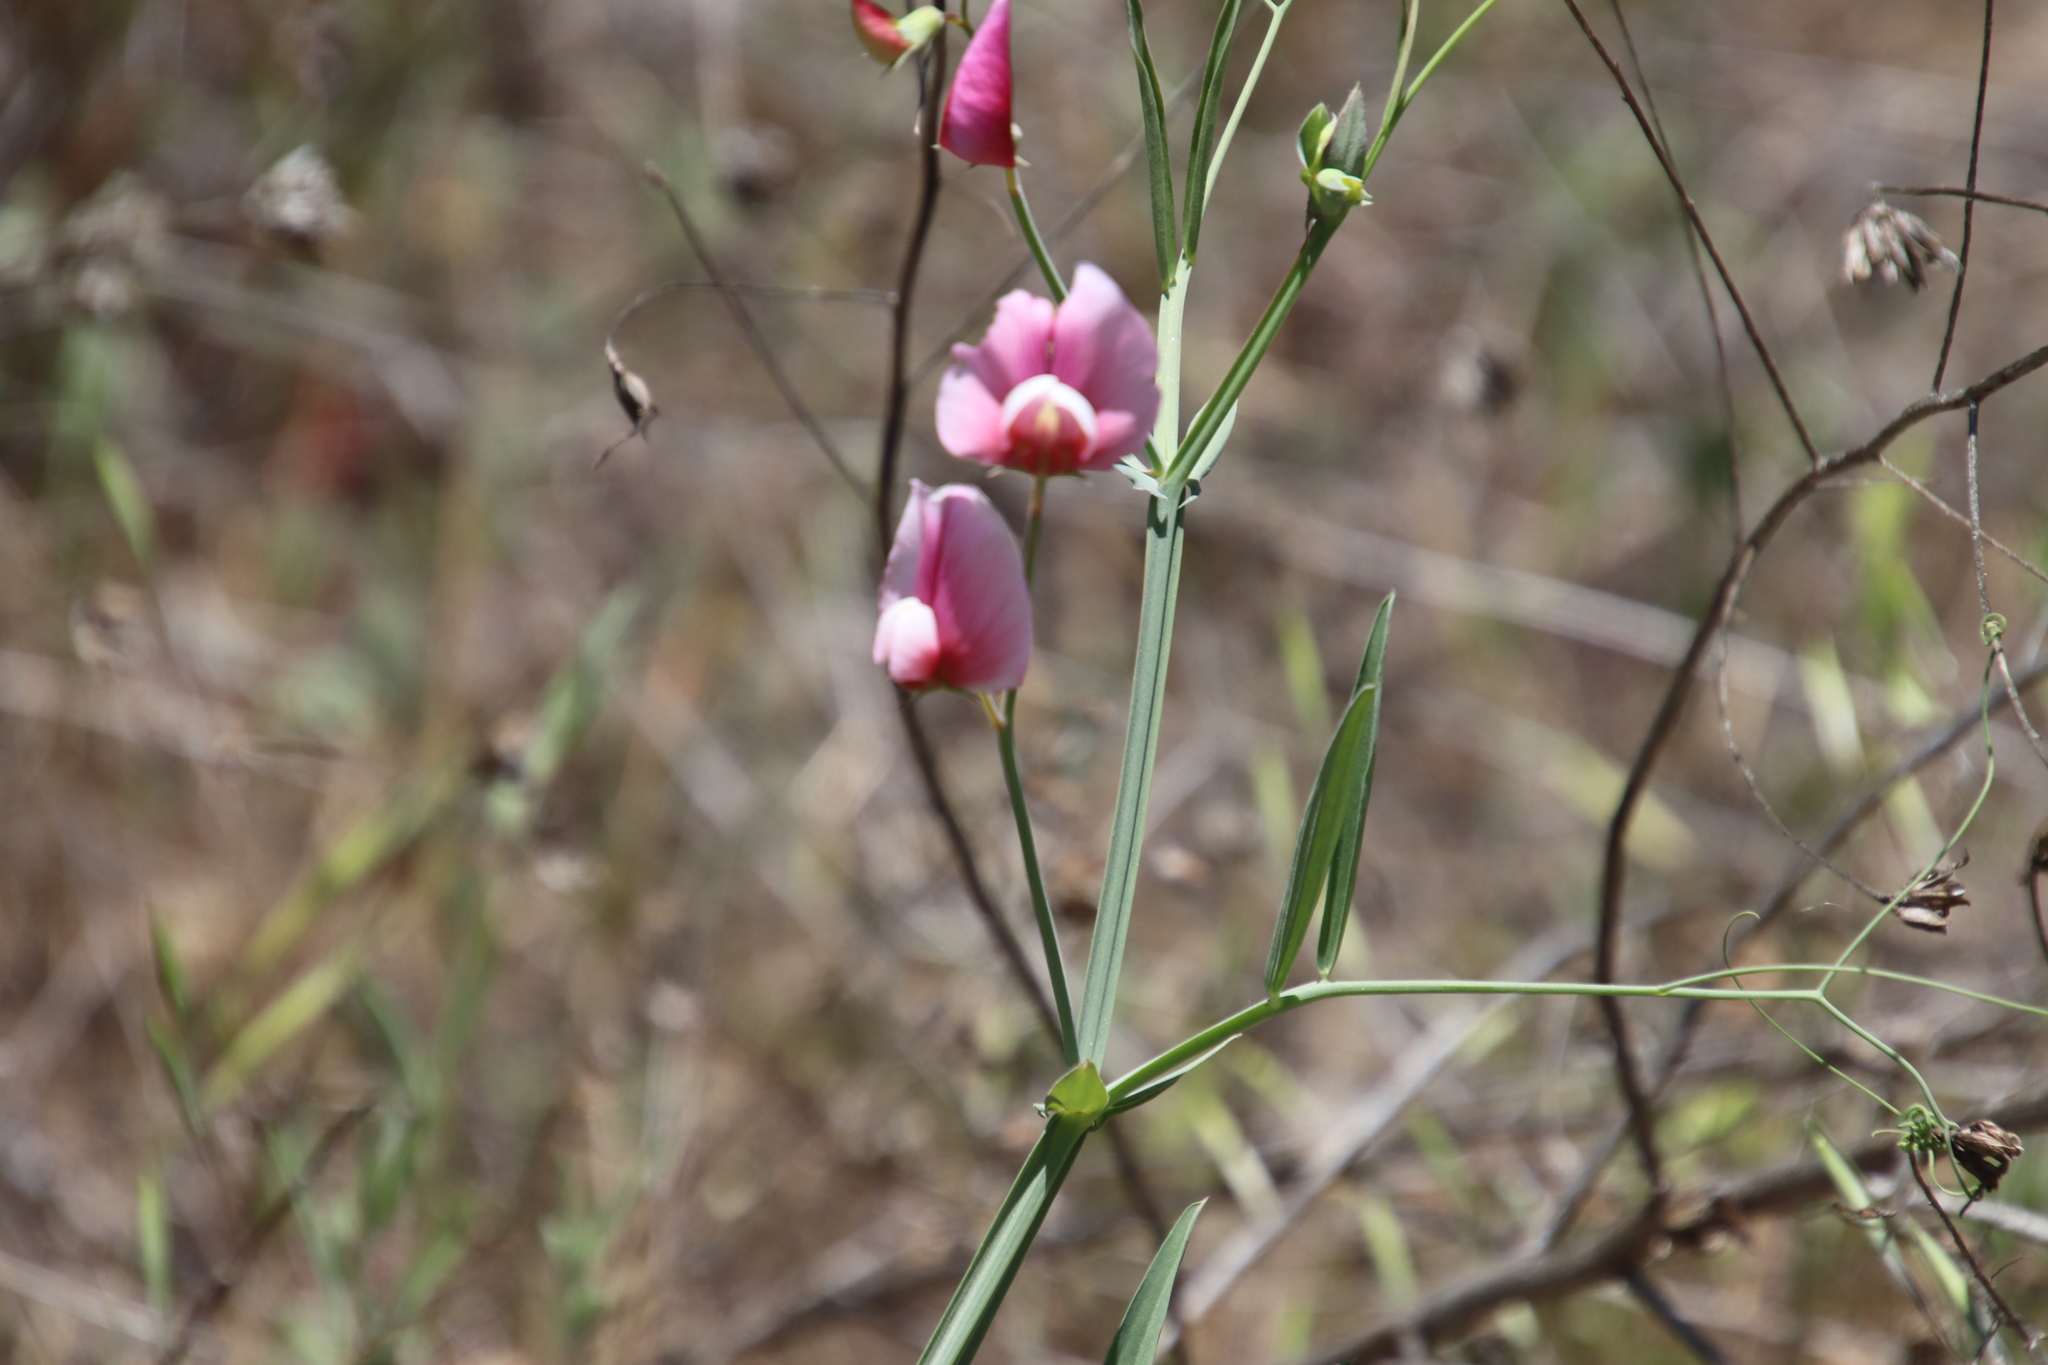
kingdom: Plantae
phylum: Tracheophyta
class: Magnoliopsida
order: Fabales
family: Fabaceae
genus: Lathyrus
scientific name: Lathyrus tingitanus
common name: Tangier pea
